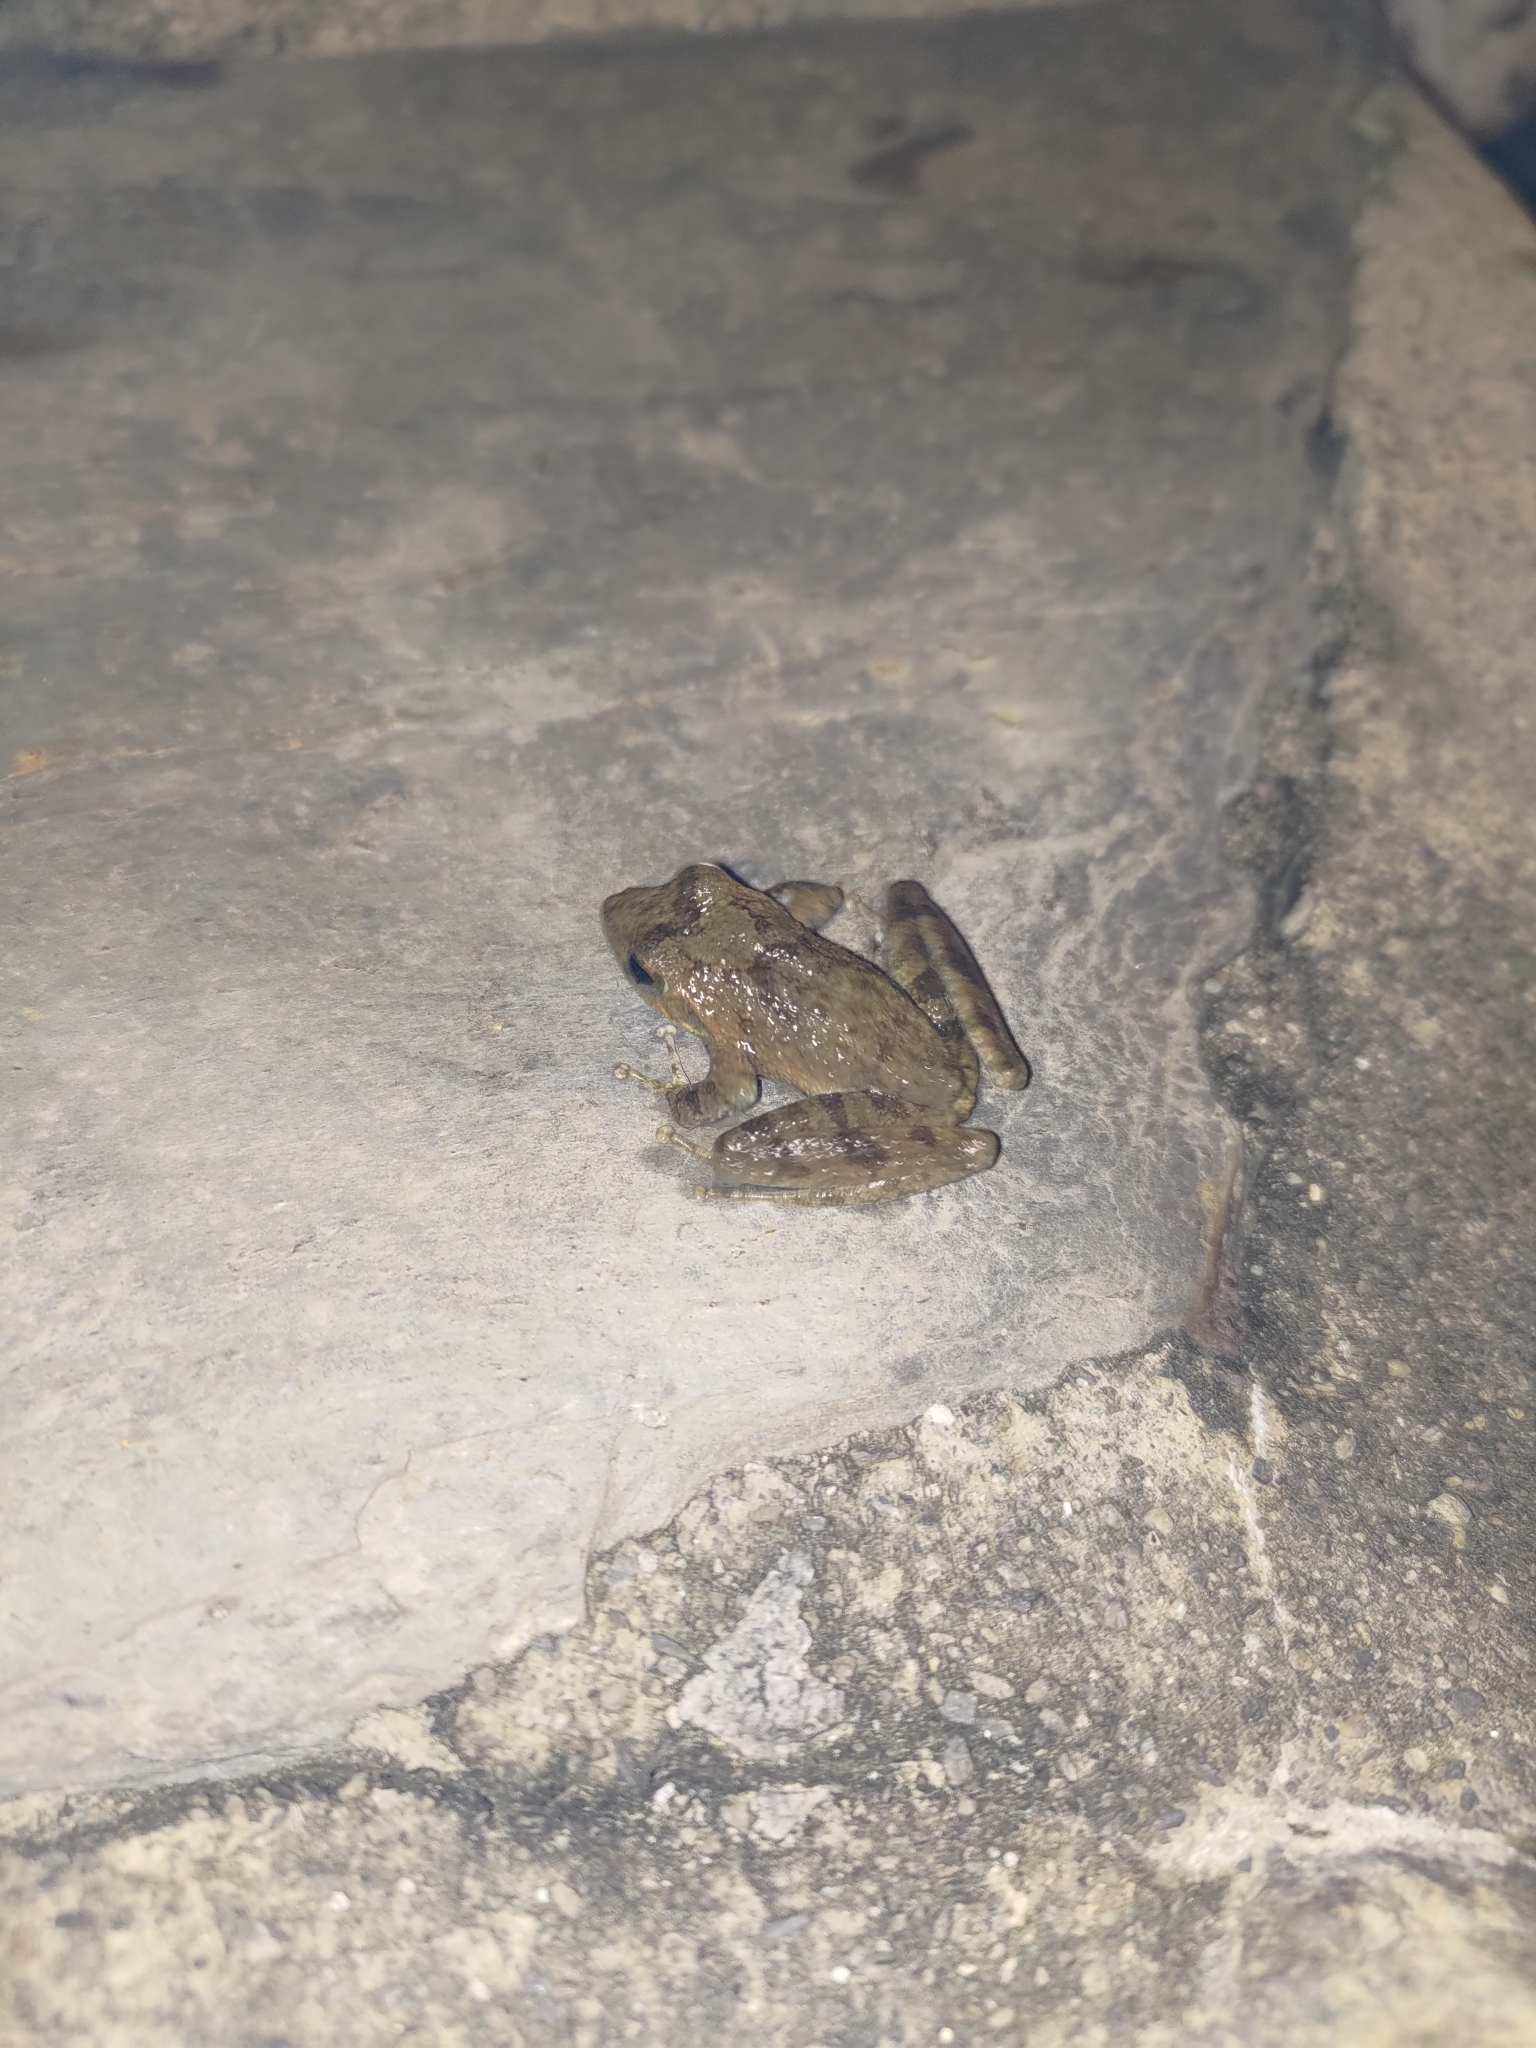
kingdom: Animalia
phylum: Chordata
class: Amphibia
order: Anura
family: Rhacophoridae
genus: Buergeria
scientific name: Buergeria otai
